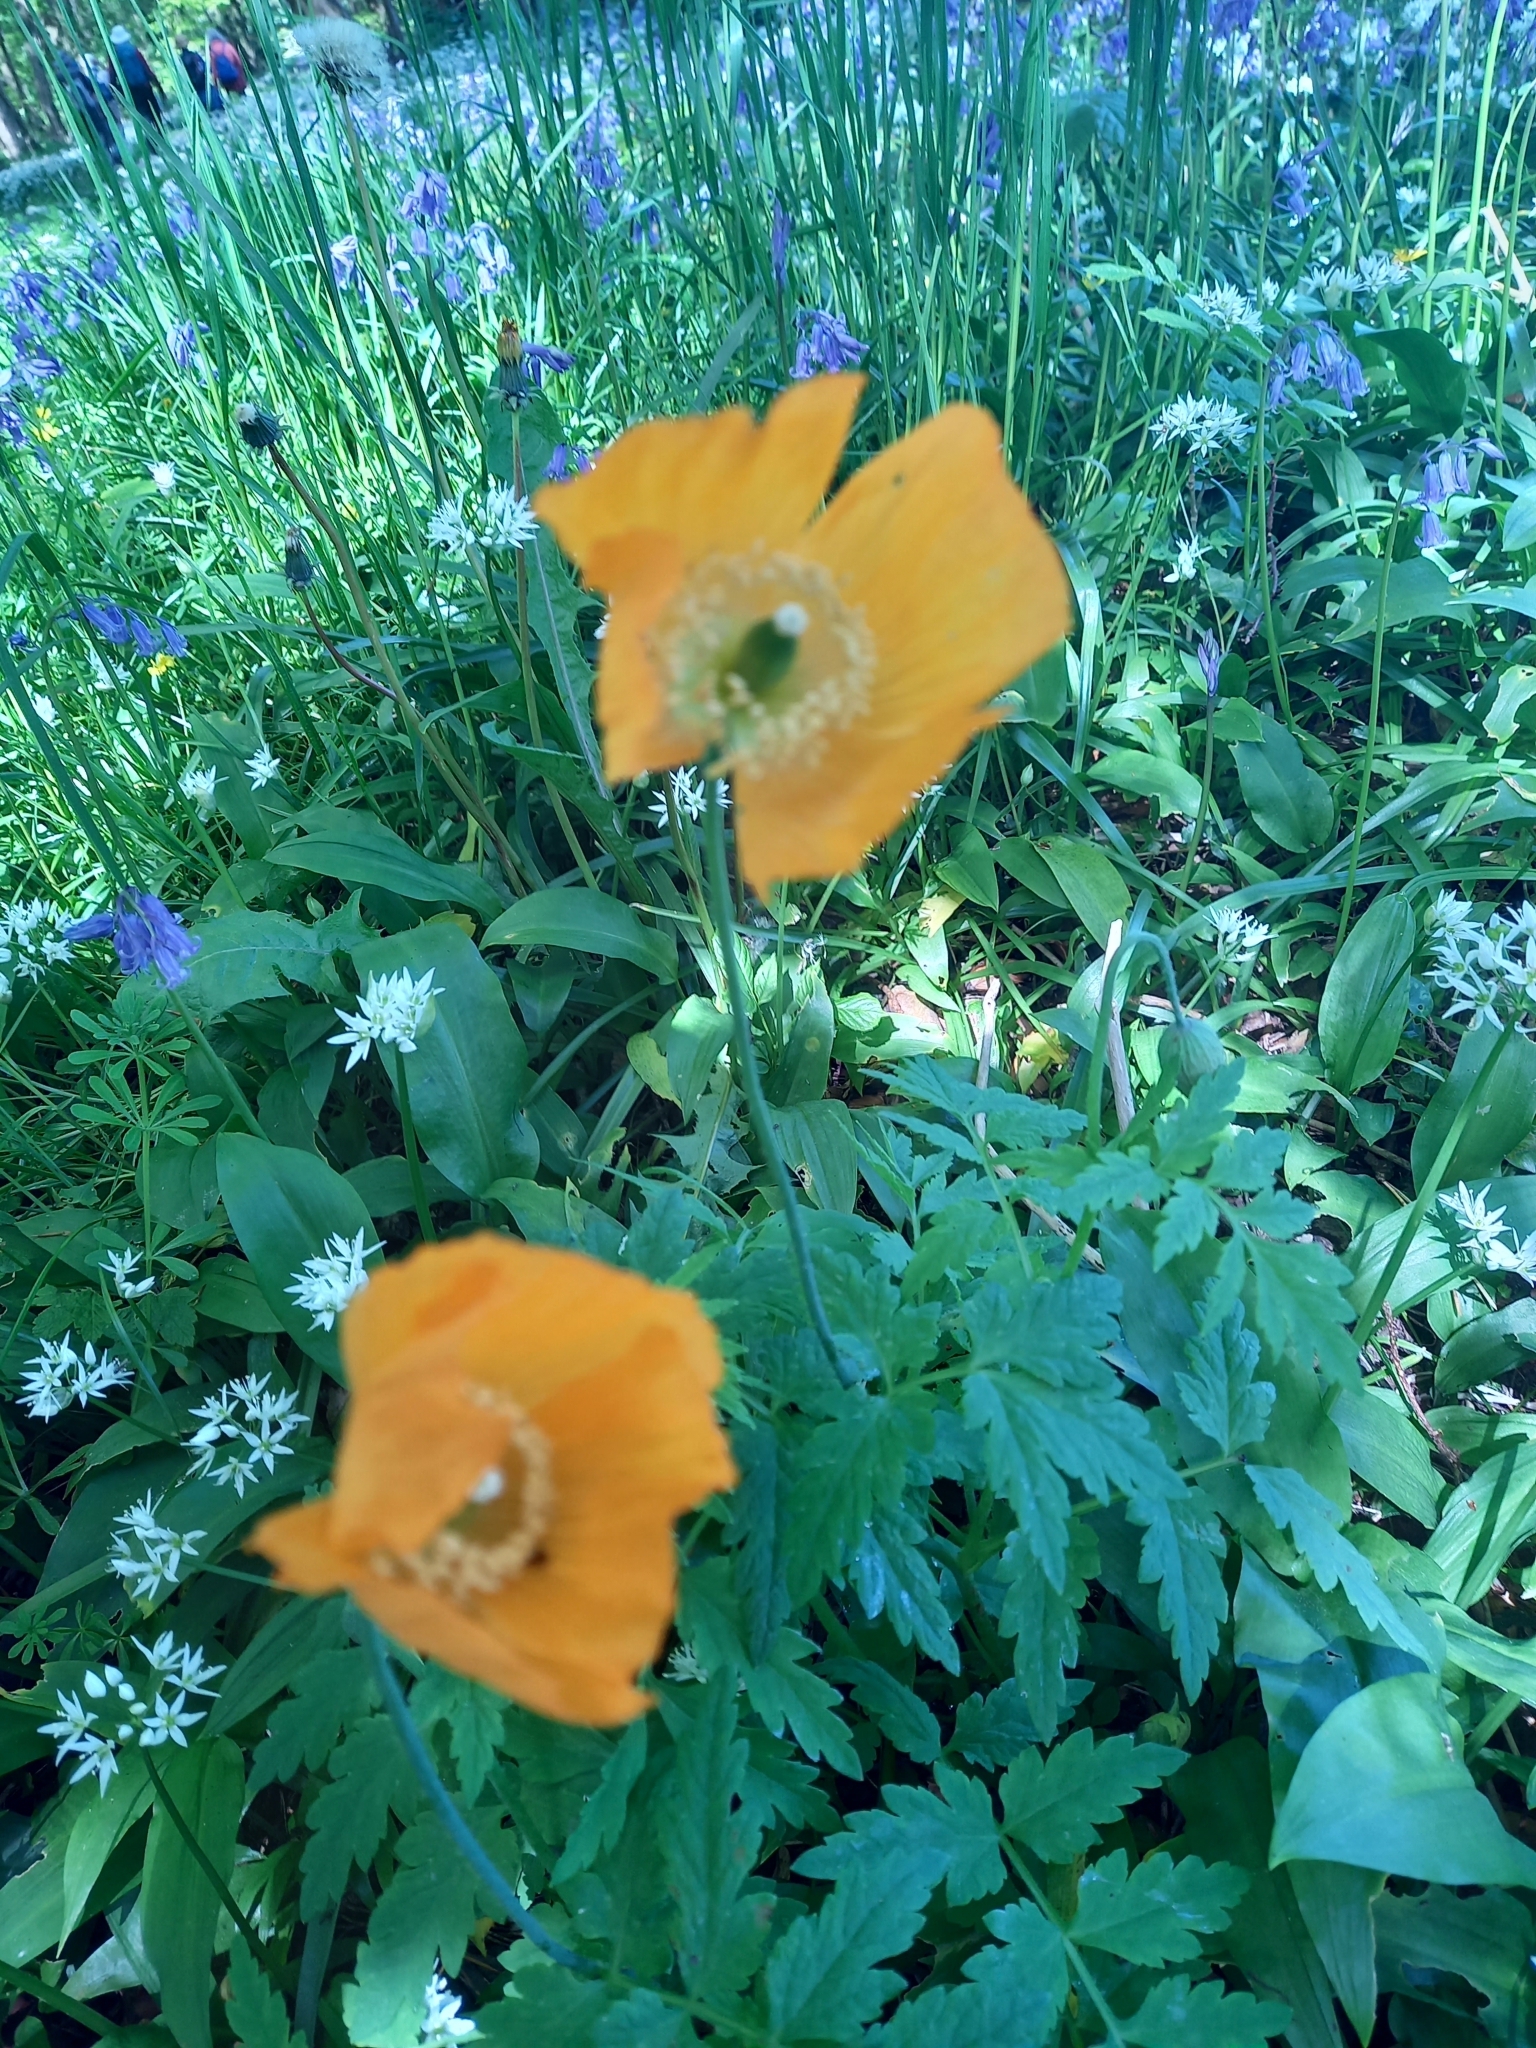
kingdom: Plantae
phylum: Tracheophyta
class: Magnoliopsida
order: Ranunculales
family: Papaveraceae
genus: Papaver
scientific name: Papaver cambricum
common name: Poppy
